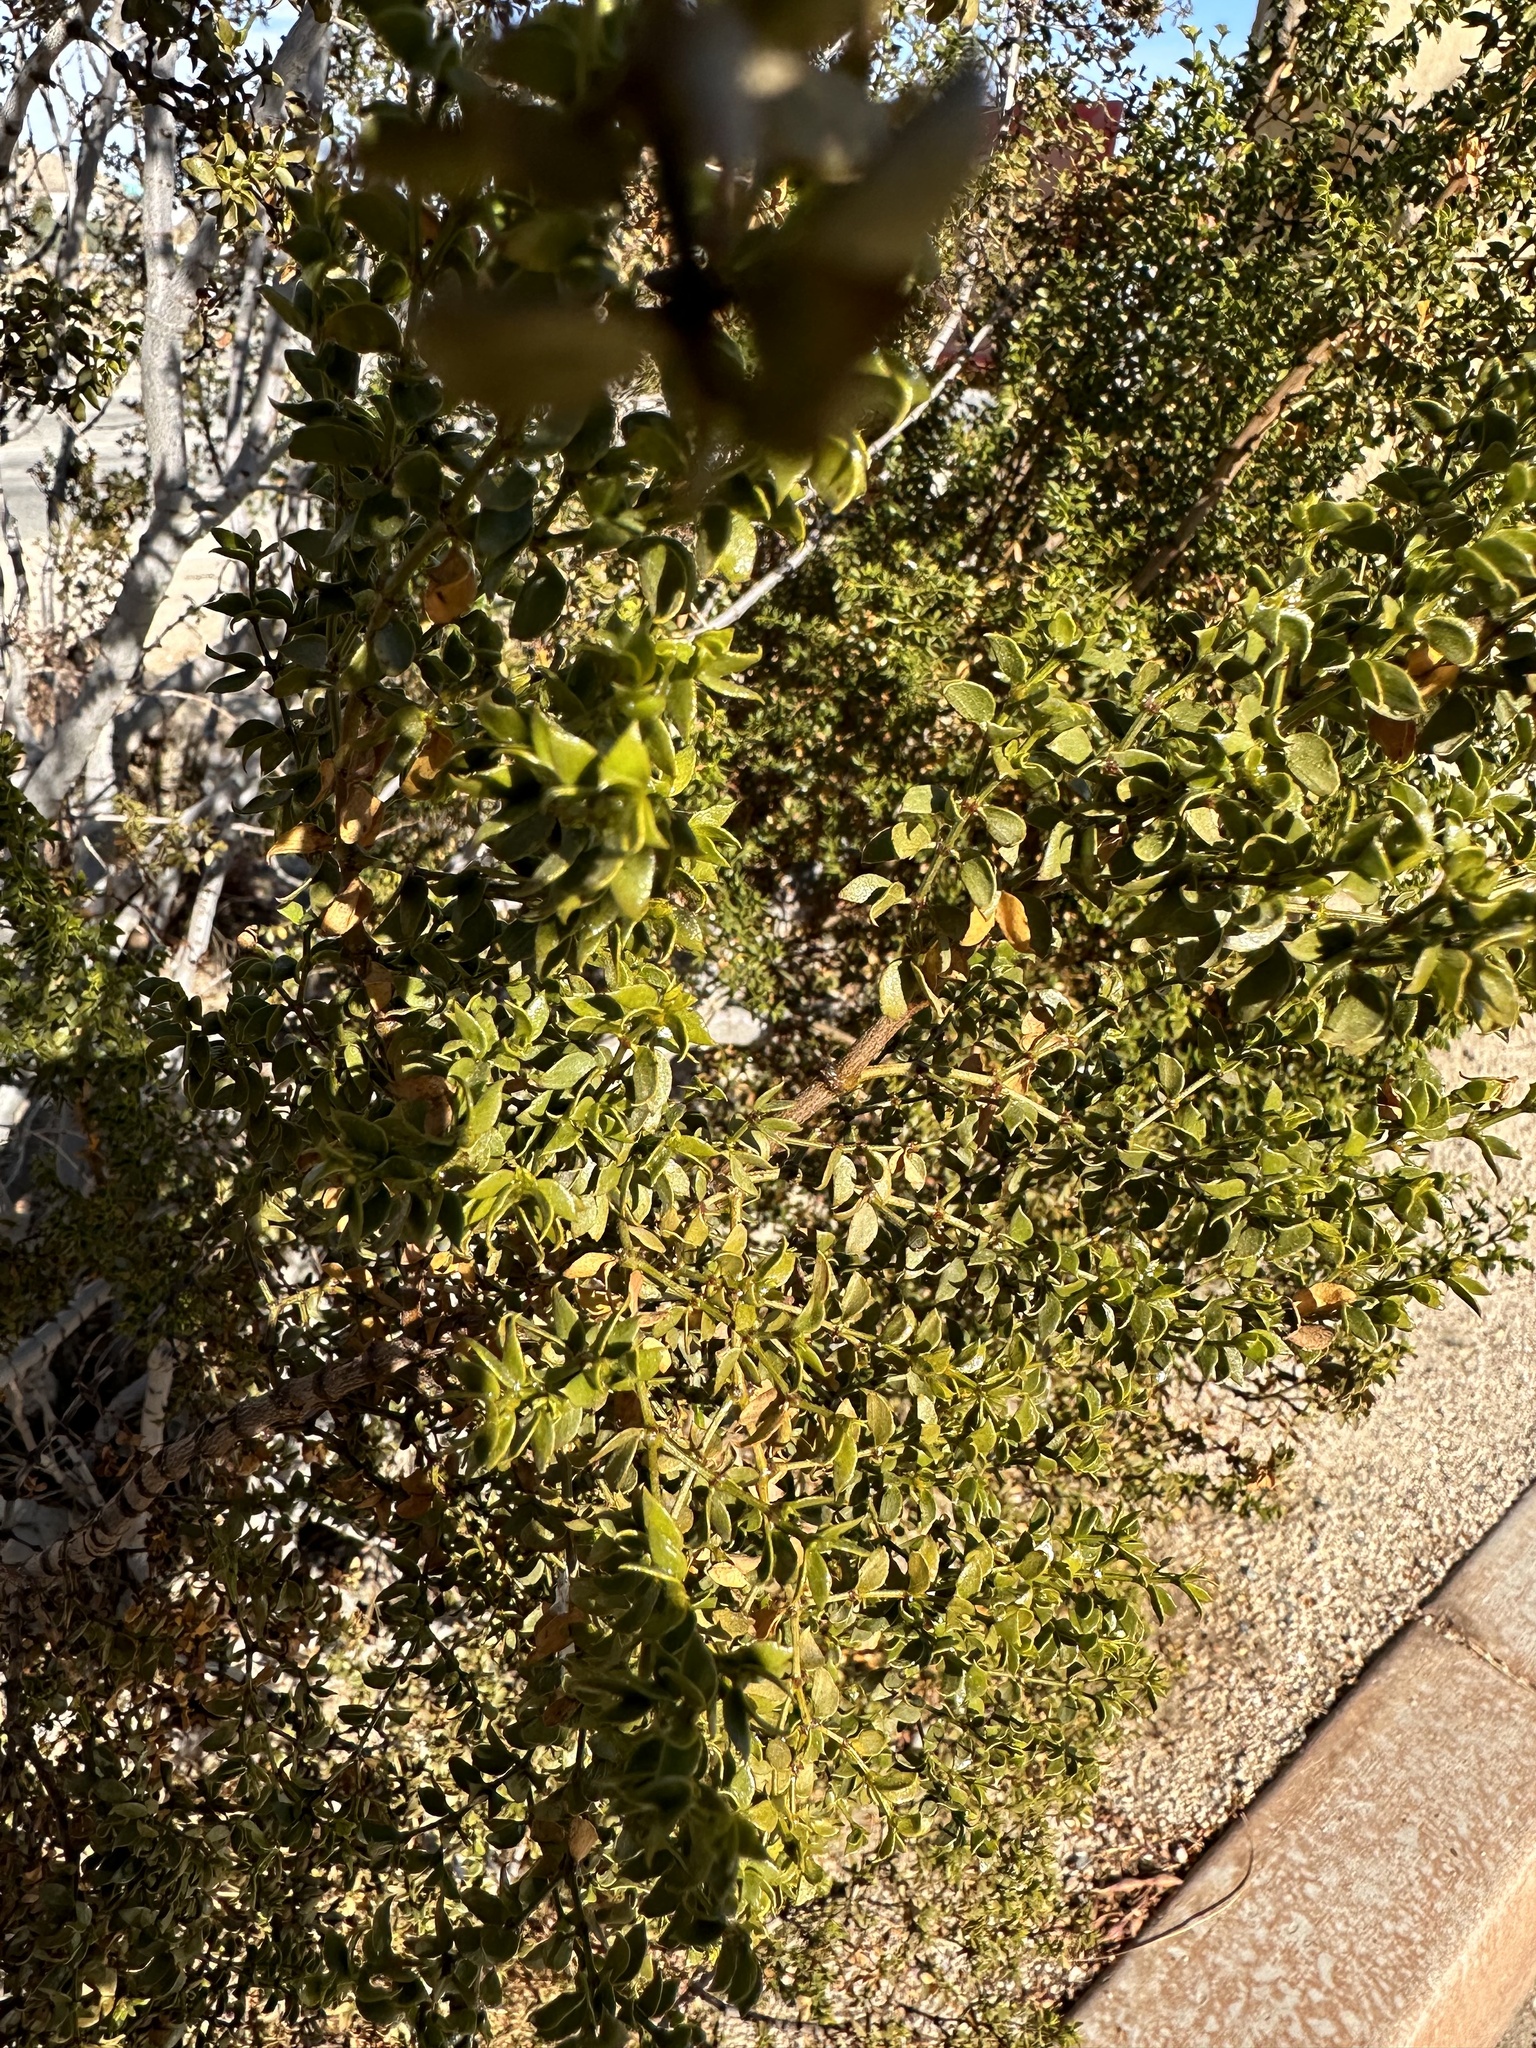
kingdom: Plantae
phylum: Tracheophyta
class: Magnoliopsida
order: Zygophyllales
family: Zygophyllaceae
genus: Larrea
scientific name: Larrea tridentata
